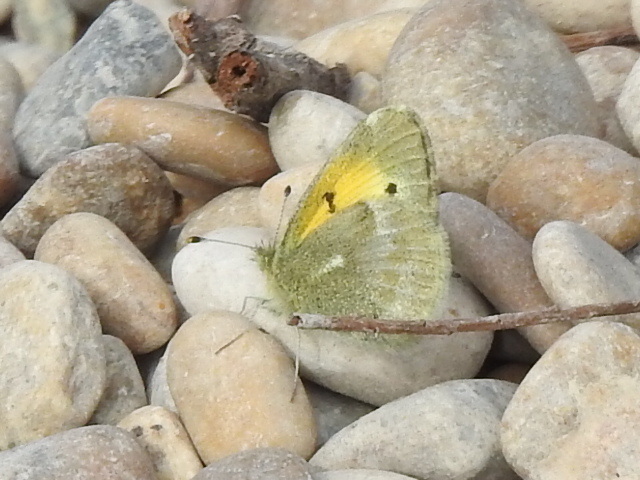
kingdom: Animalia
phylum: Arthropoda
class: Insecta
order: Lepidoptera
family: Pieridae
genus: Nathalis
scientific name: Nathalis iole
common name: Dainty sulphur
